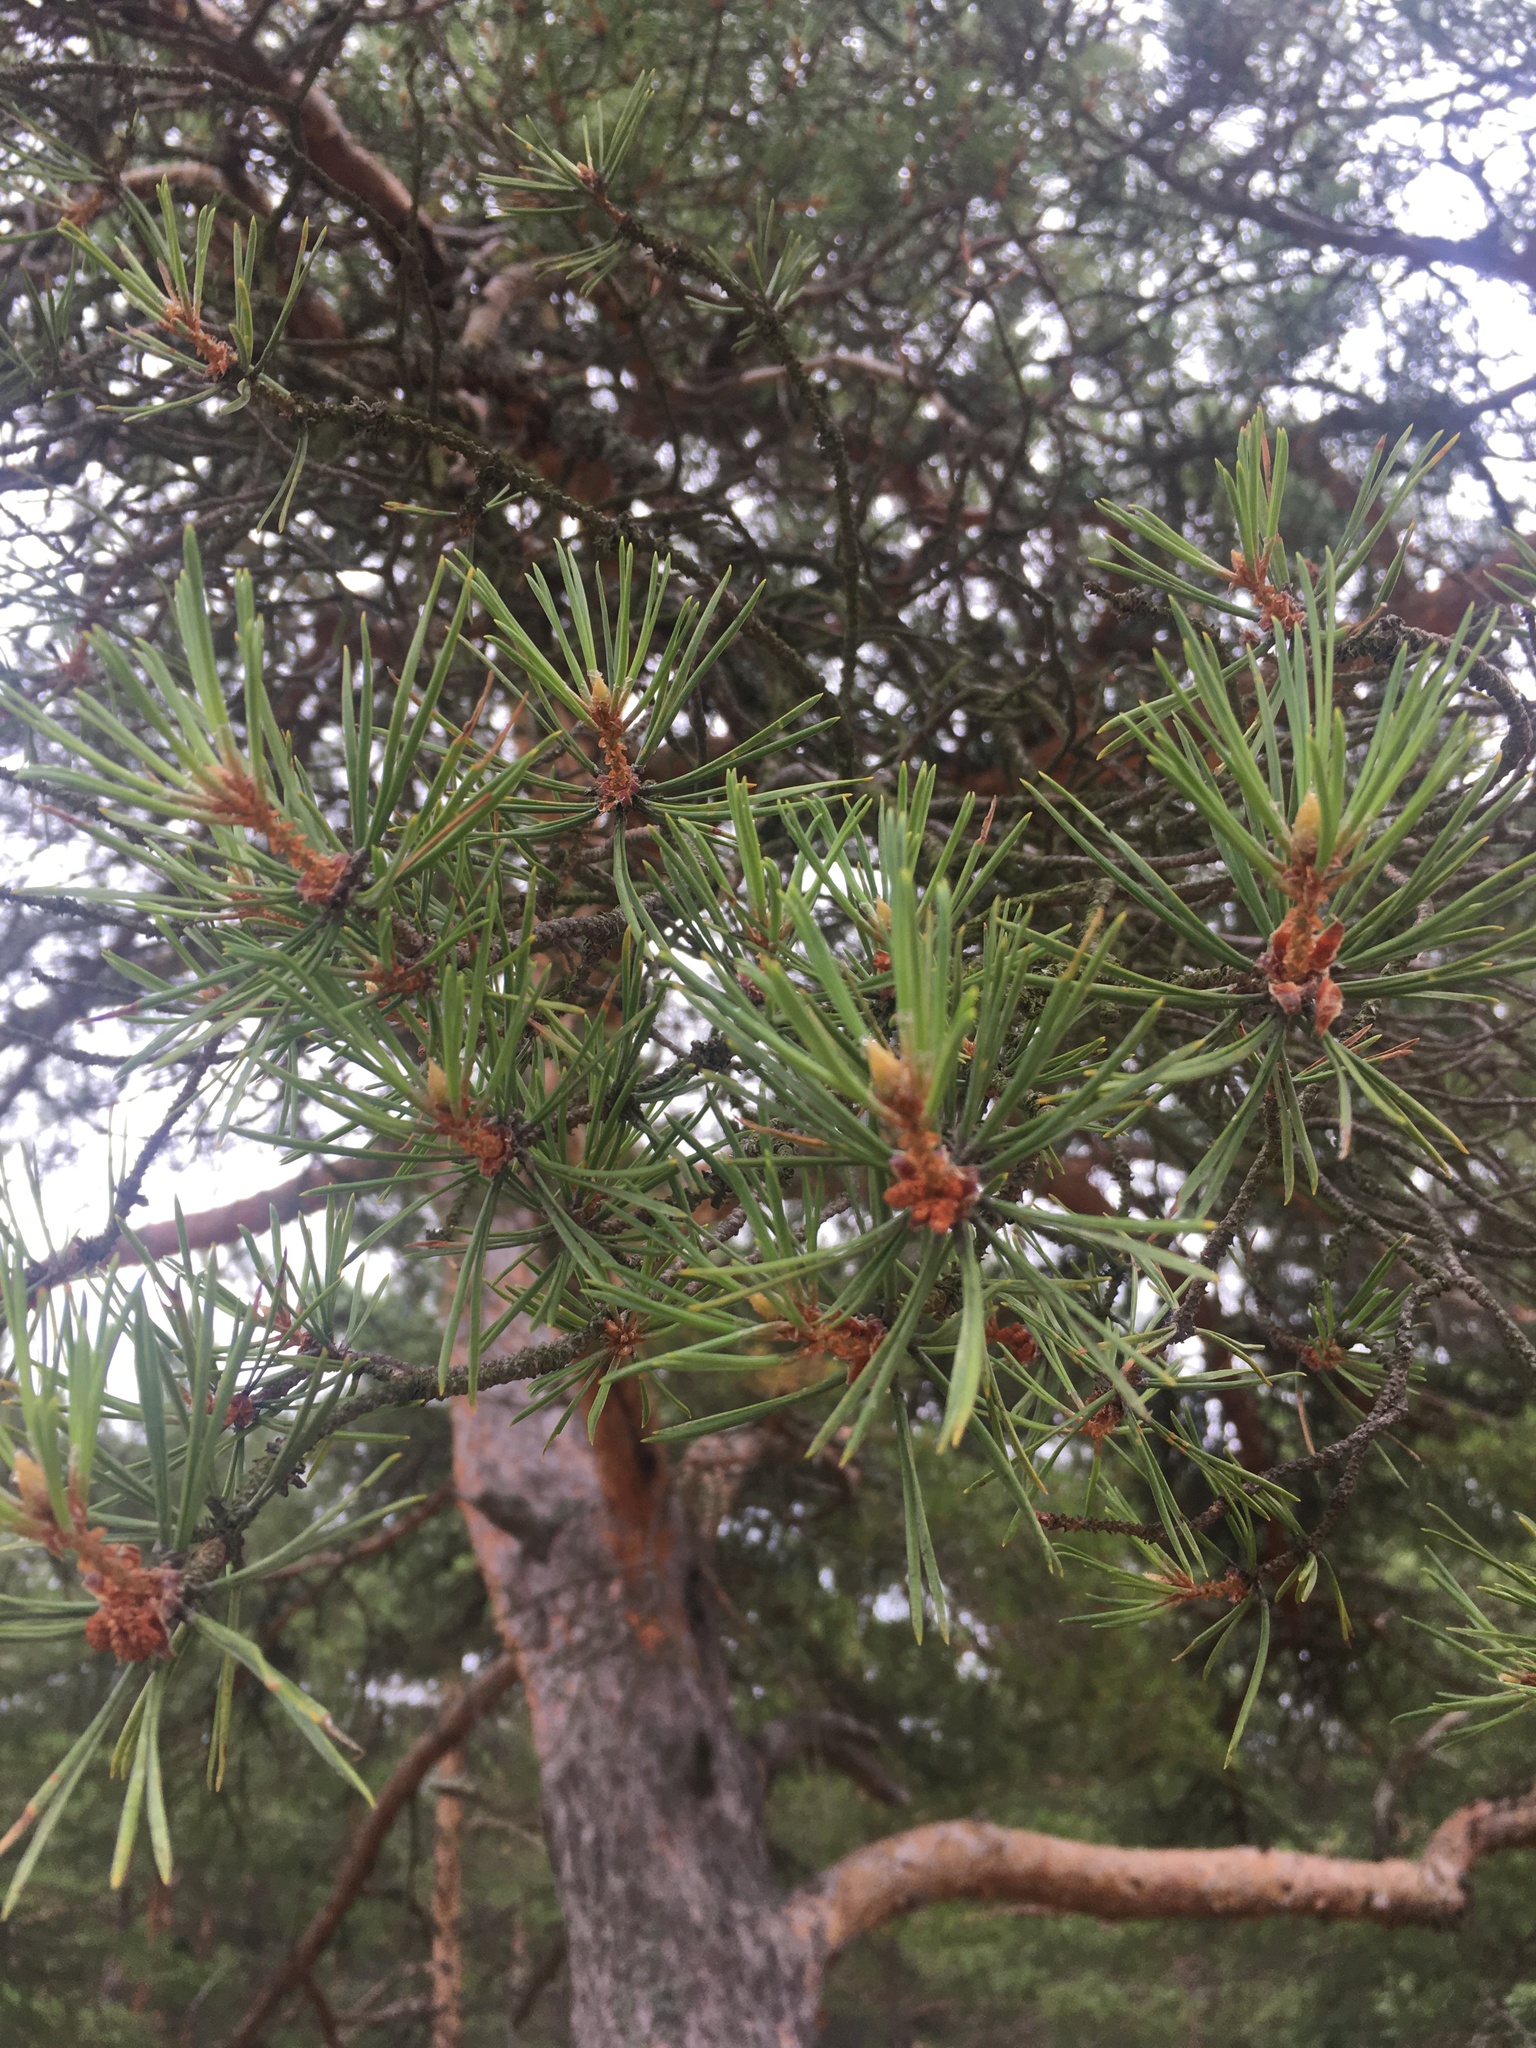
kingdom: Plantae
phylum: Tracheophyta
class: Pinopsida
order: Pinales
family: Pinaceae
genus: Pinus
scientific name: Pinus sylvestris
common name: Scots pine
